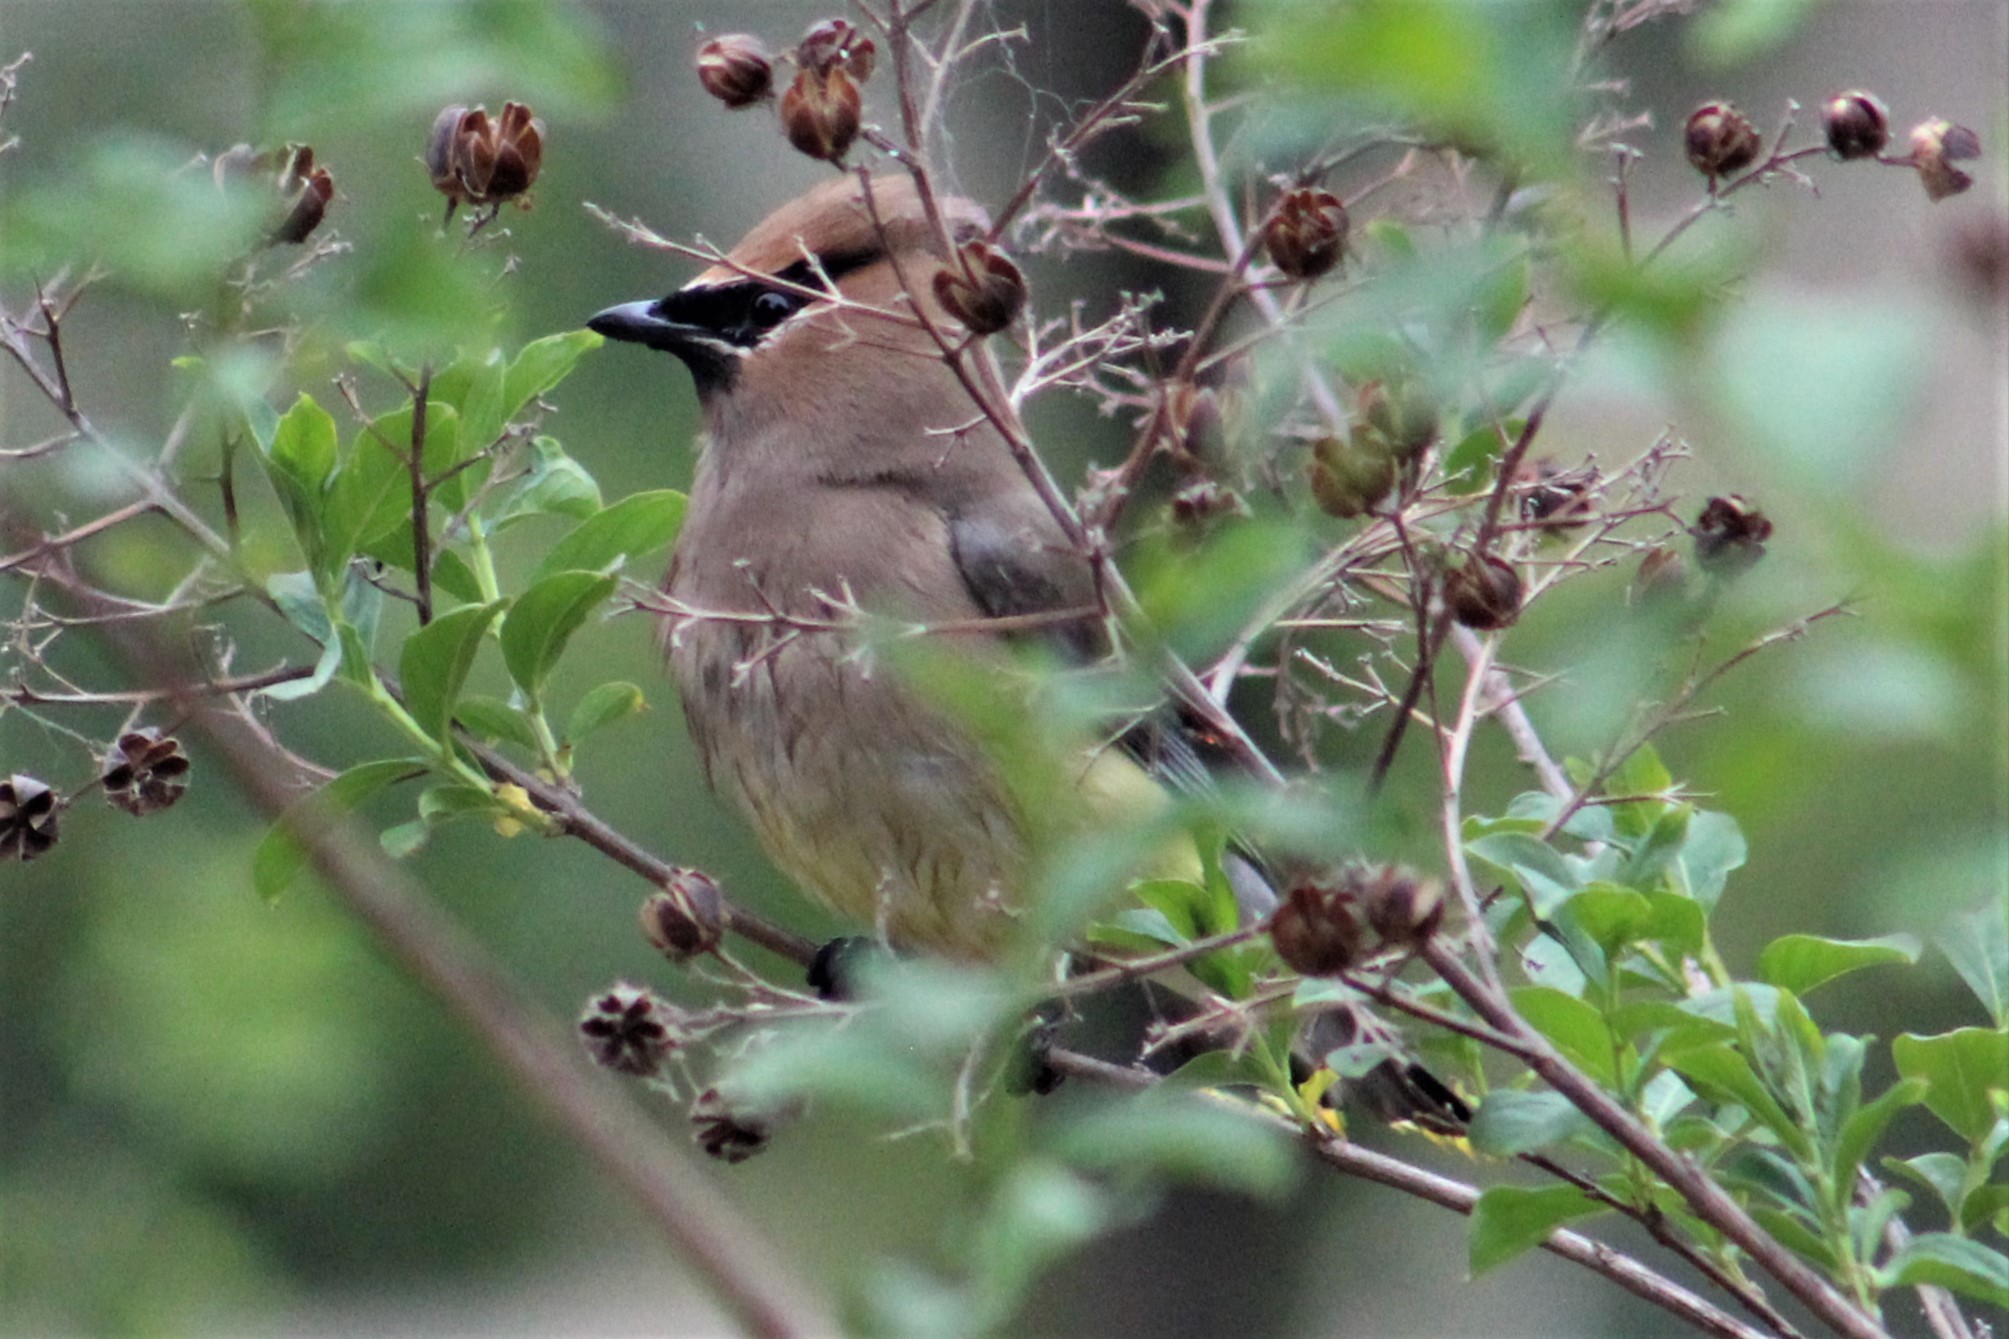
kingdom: Animalia
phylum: Chordata
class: Aves
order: Passeriformes
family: Bombycillidae
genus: Bombycilla
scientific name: Bombycilla cedrorum
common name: Cedar waxwing
